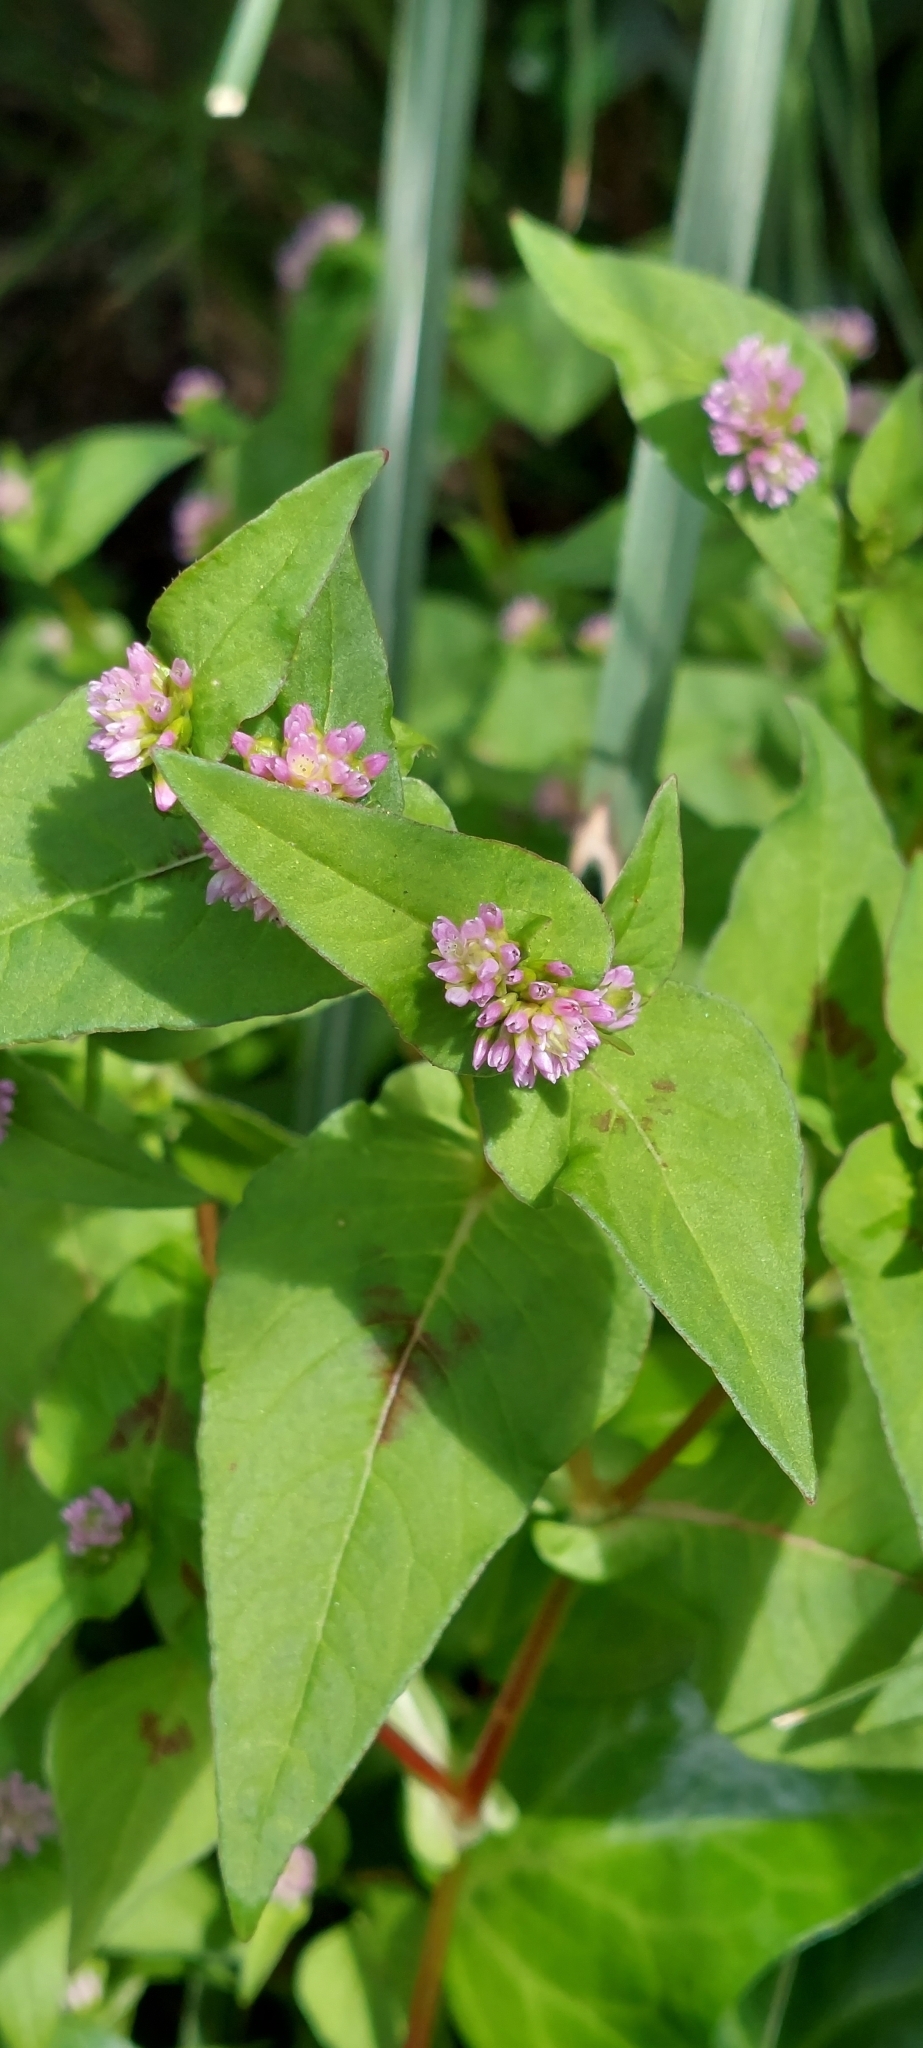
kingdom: Plantae
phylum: Tracheophyta
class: Magnoliopsida
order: Caryophyllales
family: Polygonaceae
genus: Persicaria
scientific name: Persicaria nepalensis
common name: Nepal persicaria
